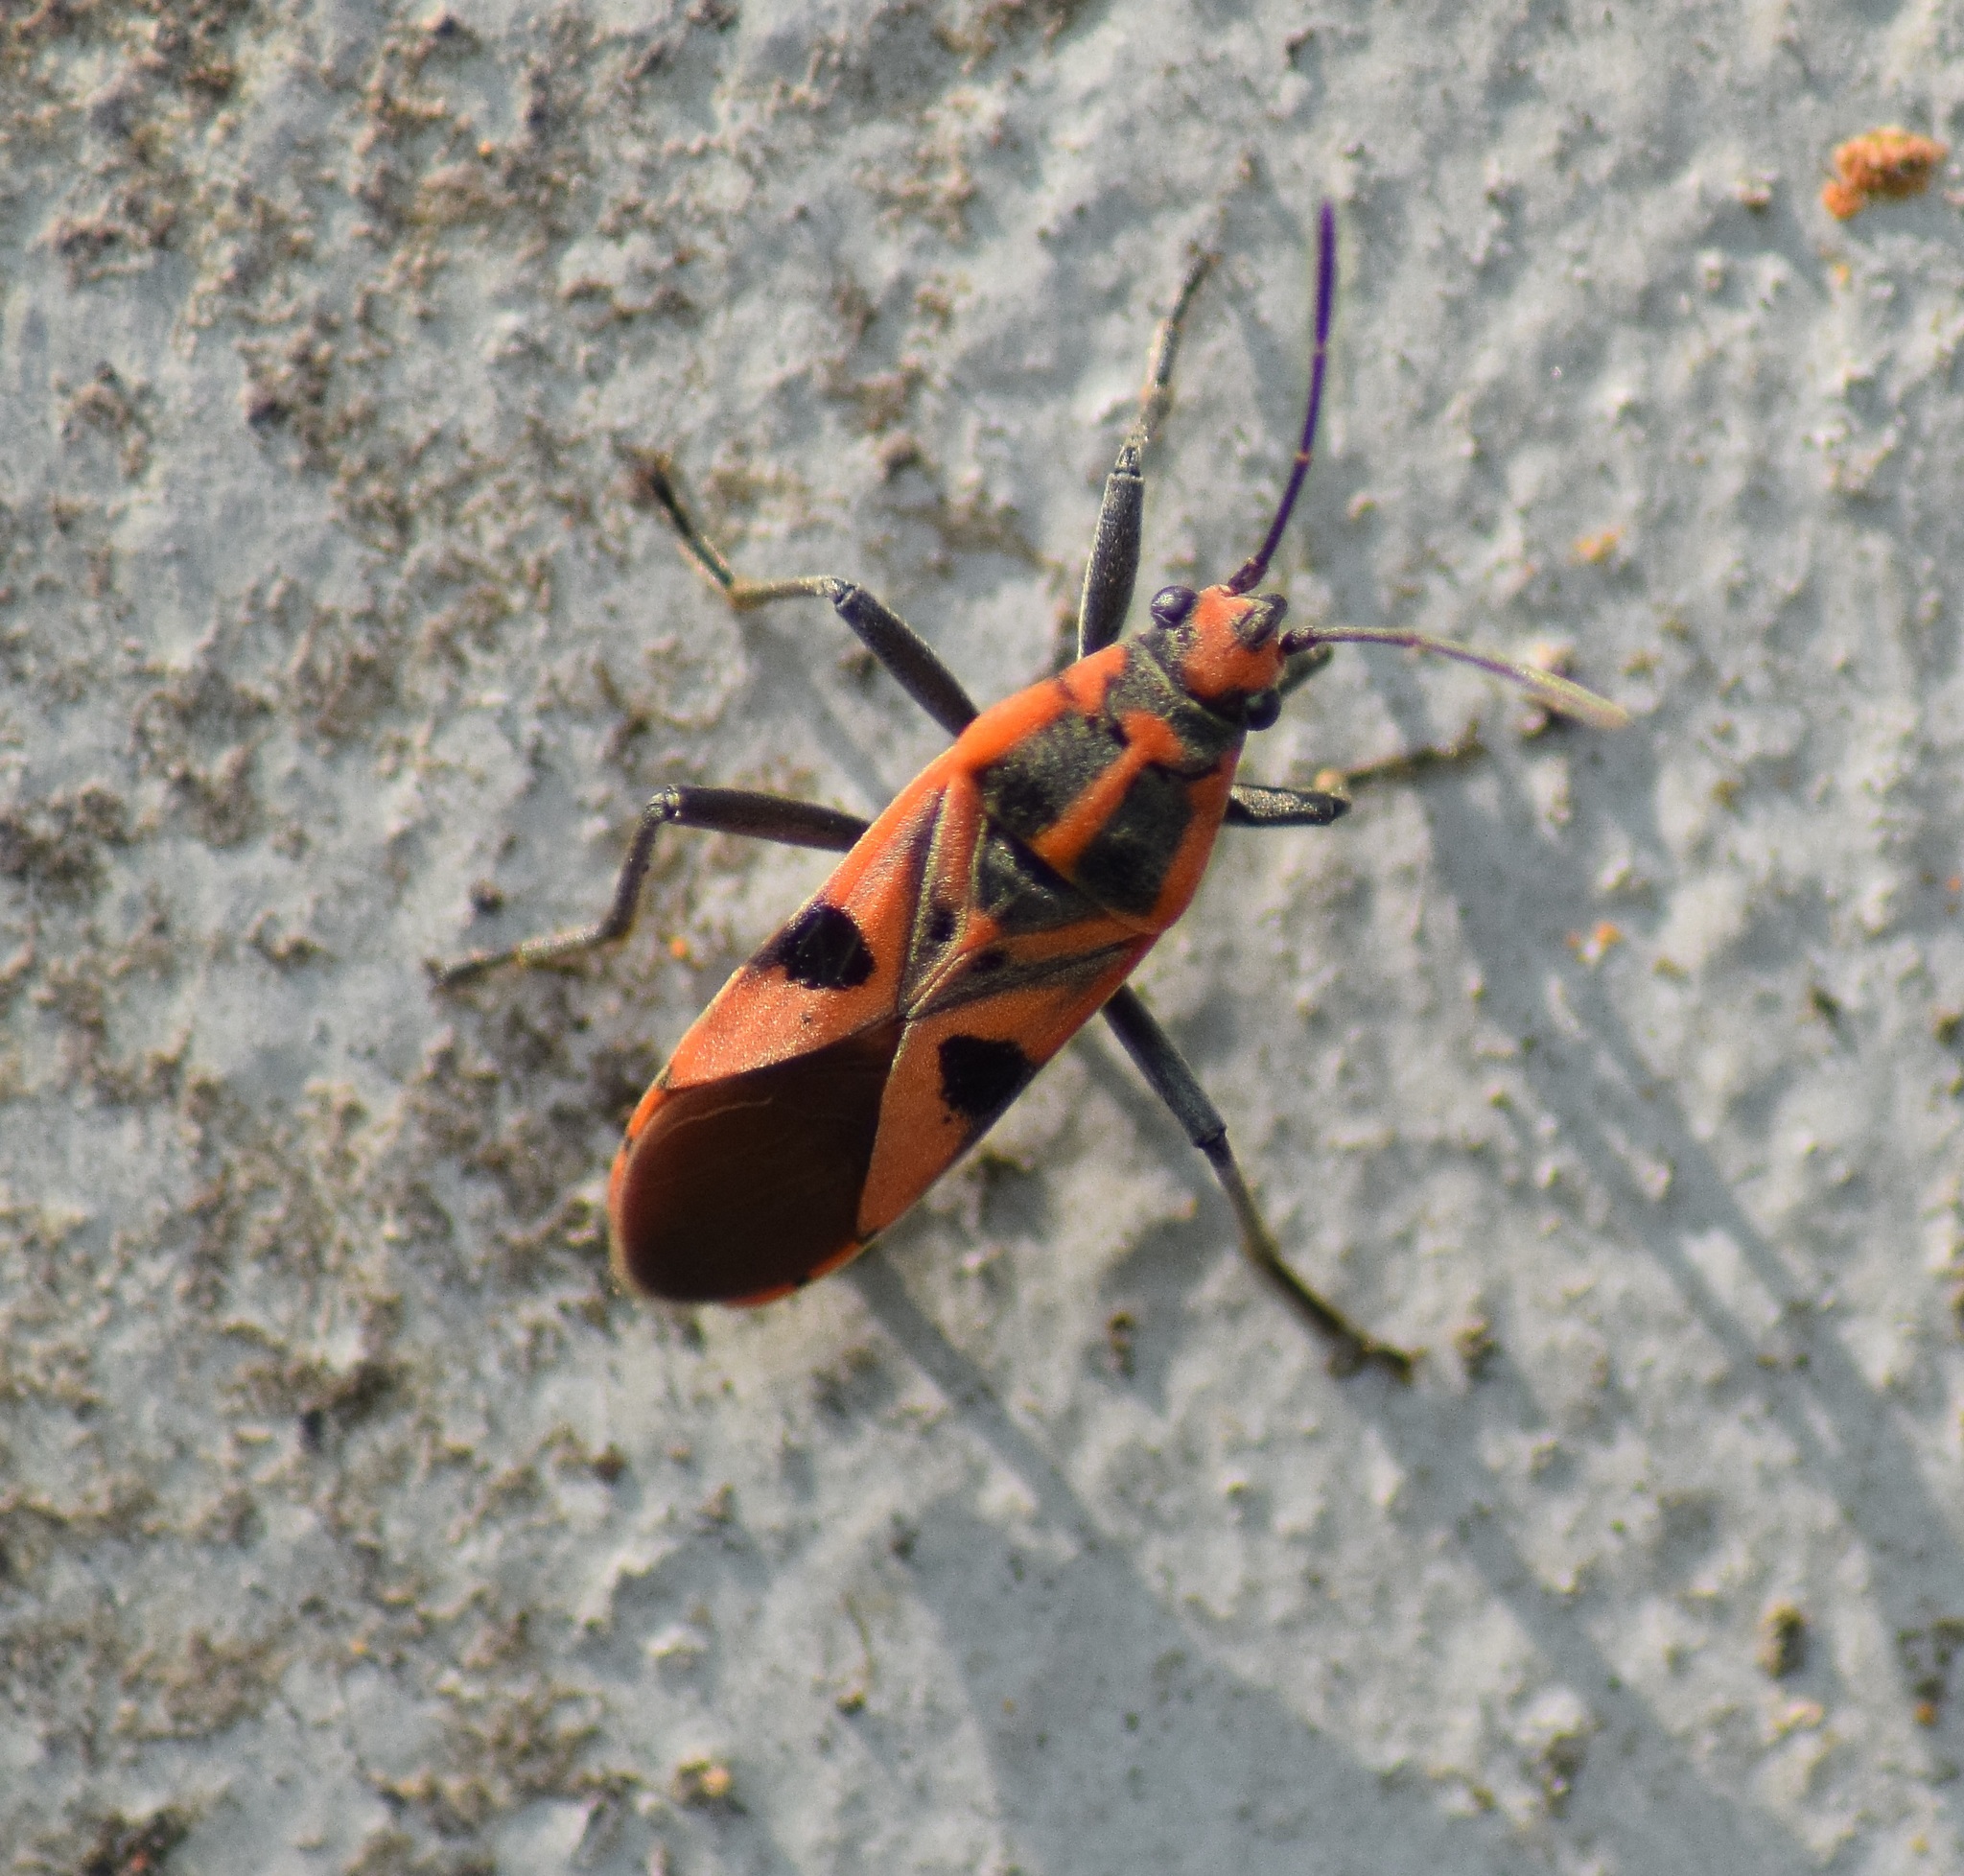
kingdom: Animalia
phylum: Arthropoda
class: Insecta
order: Hemiptera
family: Lygaeidae
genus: Spilostethus
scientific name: Spilostethus hospes
